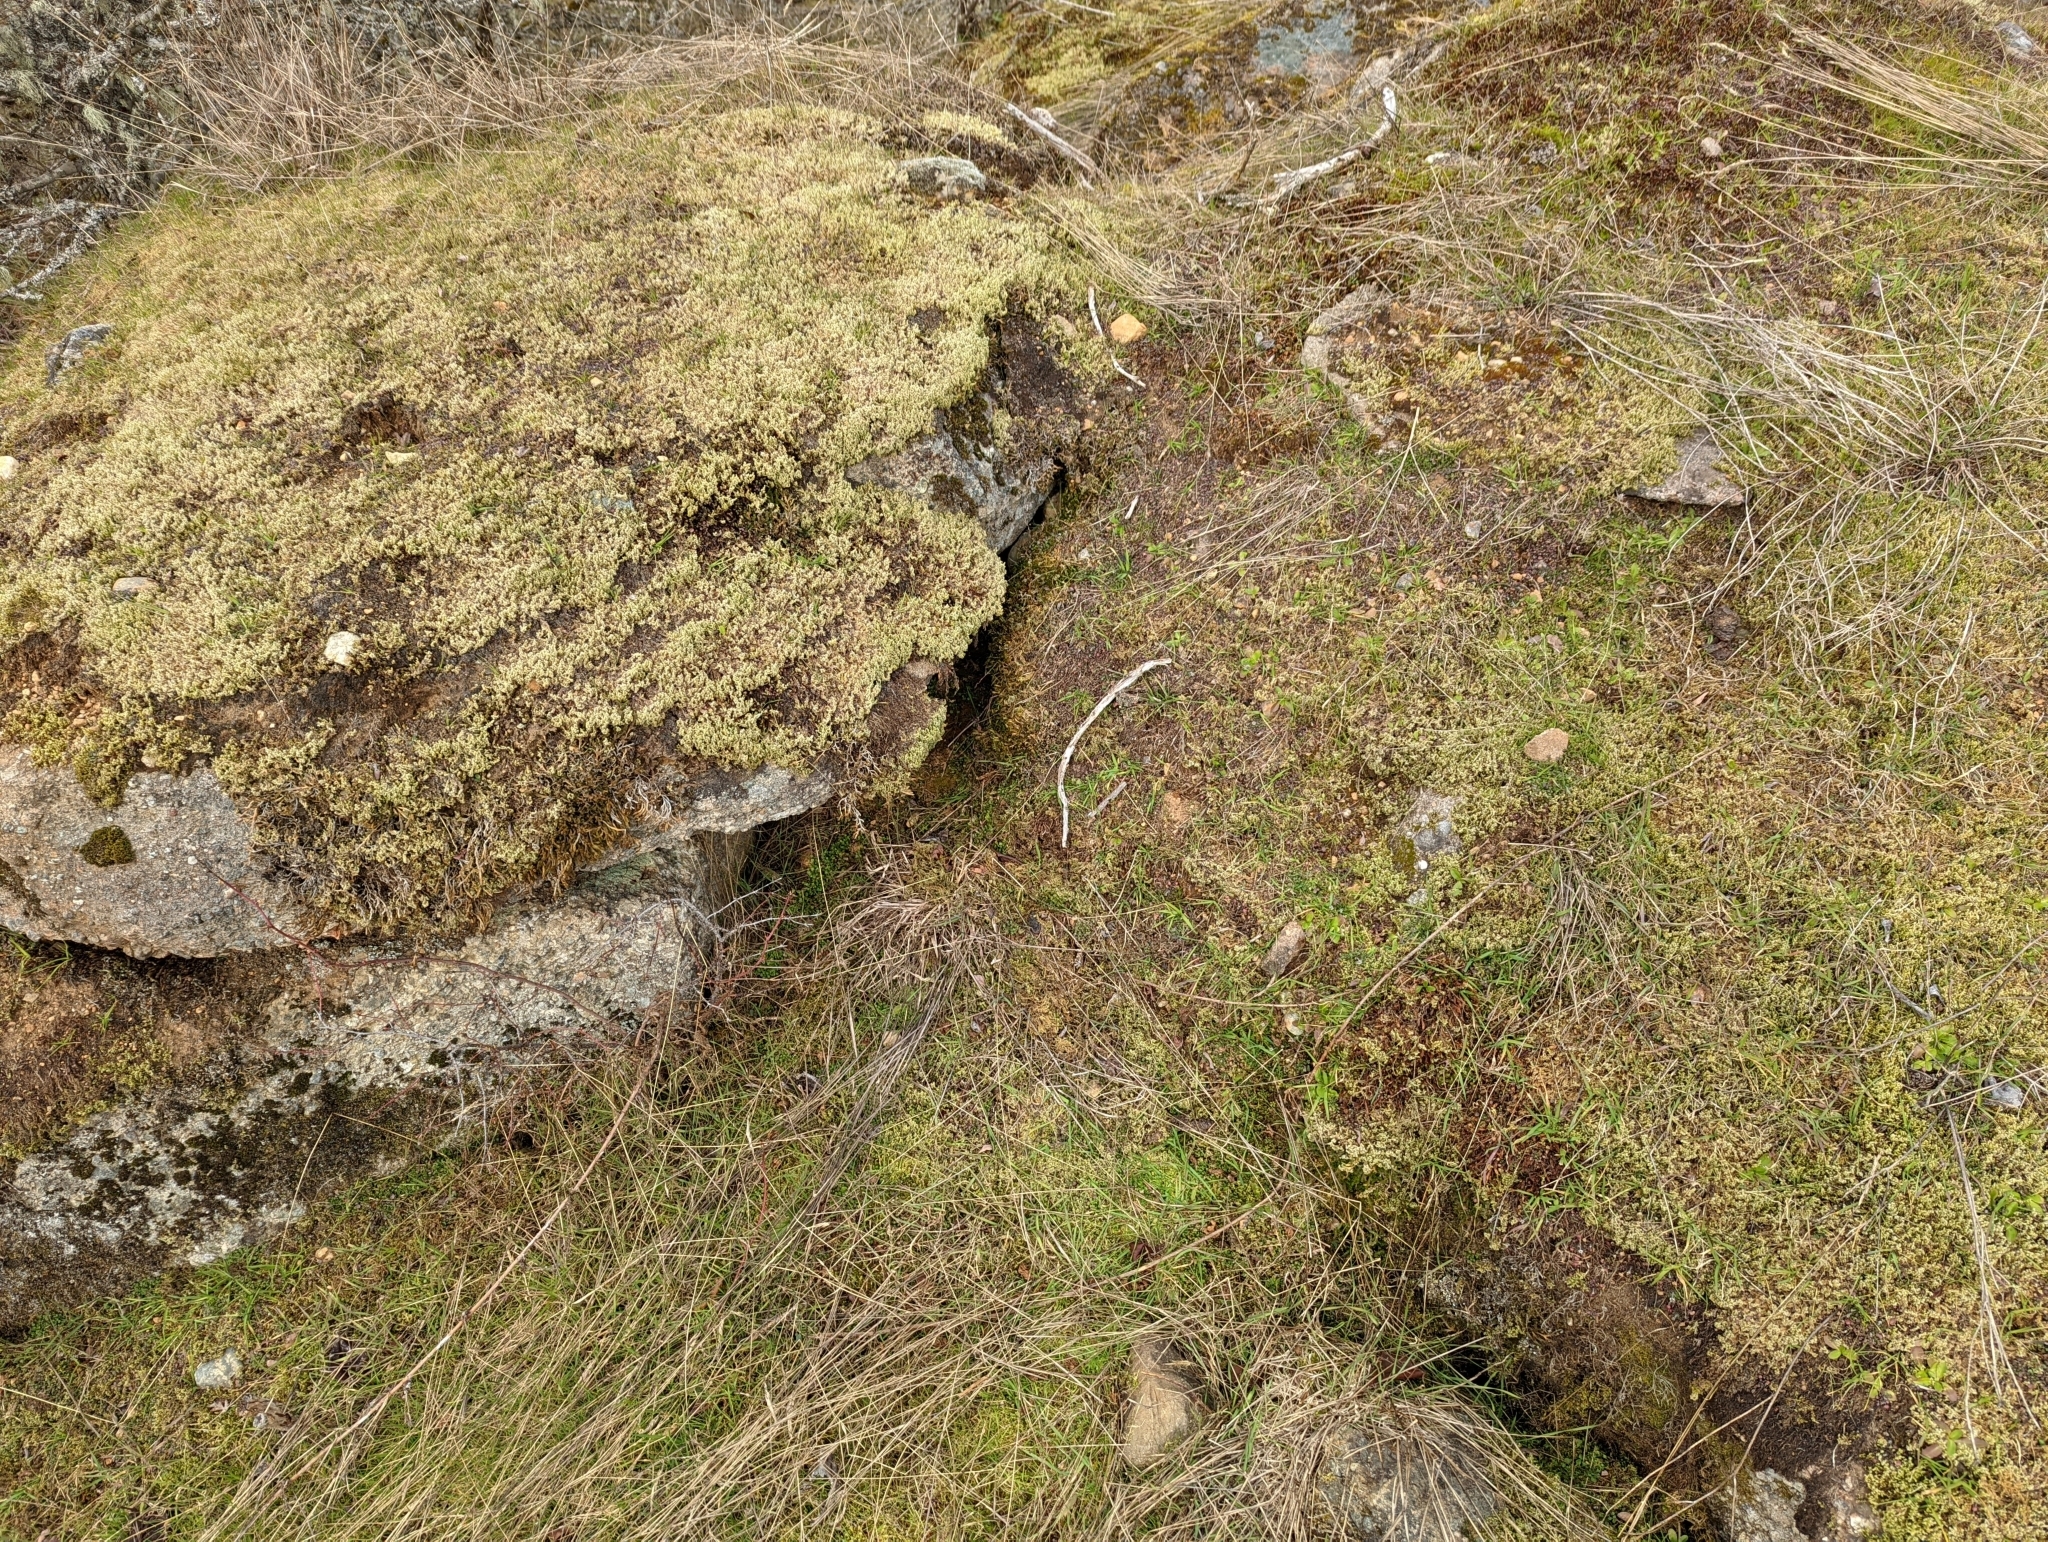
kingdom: Plantae
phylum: Bryophyta
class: Bryopsida
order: Dicranales
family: Ditrichaceae
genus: Pleuridium
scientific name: Pleuridium acuminatum
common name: Taper-leaved earth-moss
